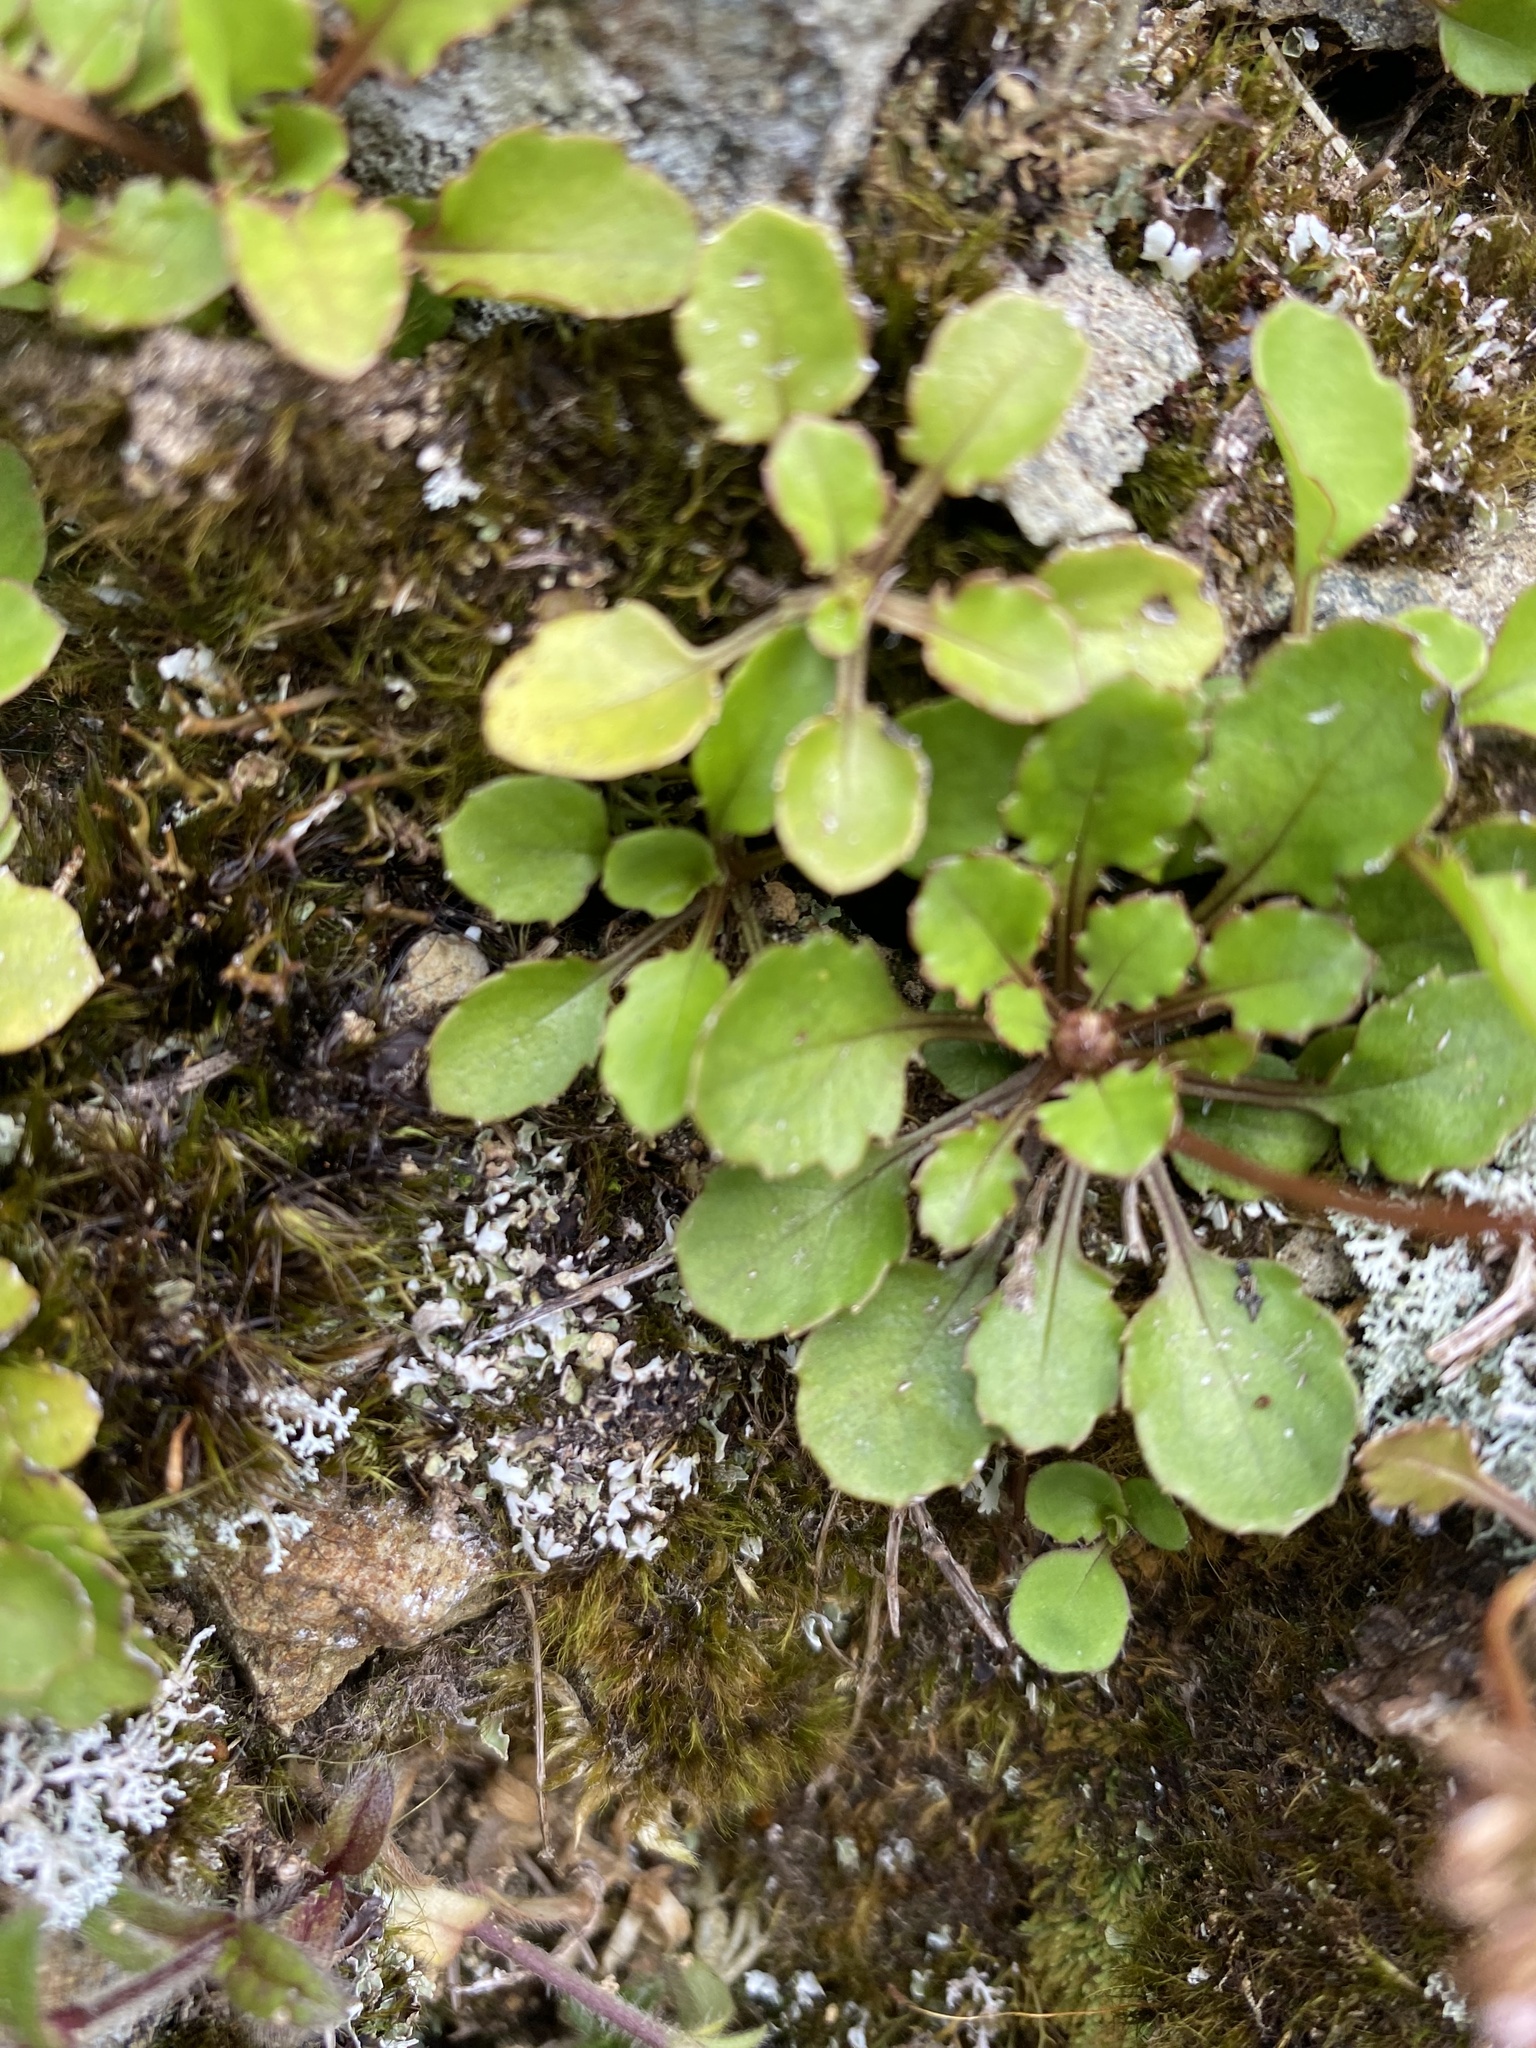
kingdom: Plantae
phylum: Tracheophyta
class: Magnoliopsida
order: Asterales
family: Asteraceae
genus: Lagenophora
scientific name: Lagenophora pumila
